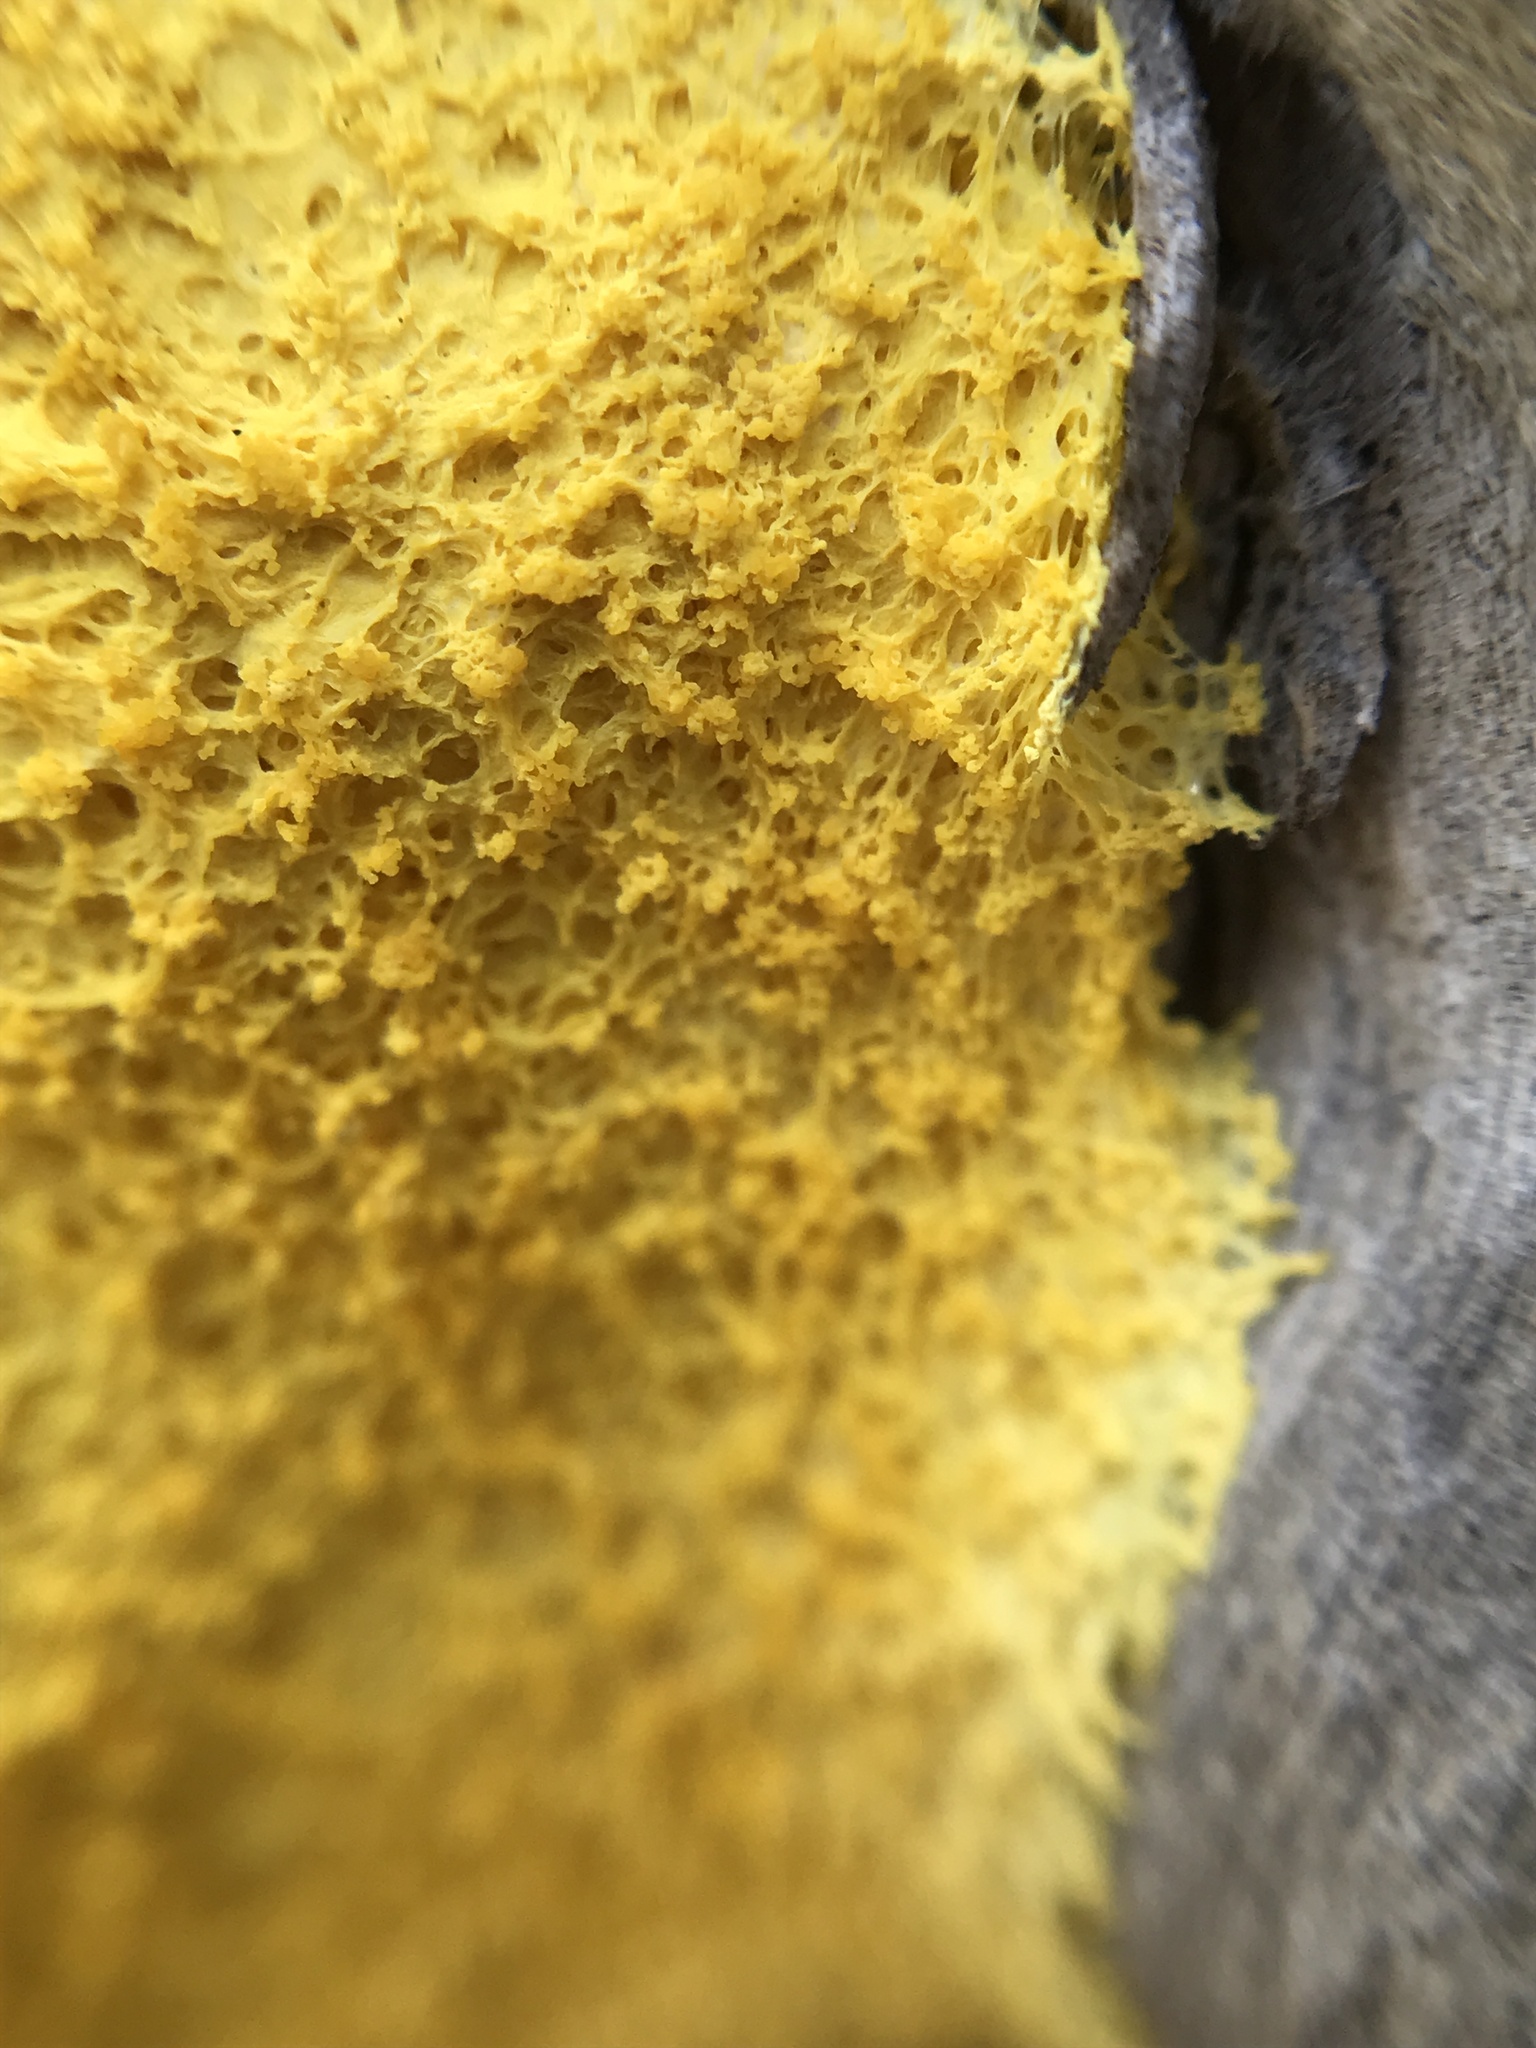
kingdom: Protozoa
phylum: Mycetozoa
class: Myxomycetes
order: Physarales
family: Physaraceae
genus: Fuligo
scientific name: Fuligo septica
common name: Dog vomit slime mold
